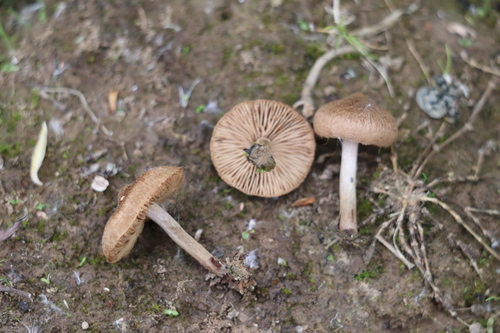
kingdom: Fungi
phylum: Basidiomycota
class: Agaricomycetes
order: Agaricales
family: Inocybaceae
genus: Inocybe
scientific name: Inocybe lacera
